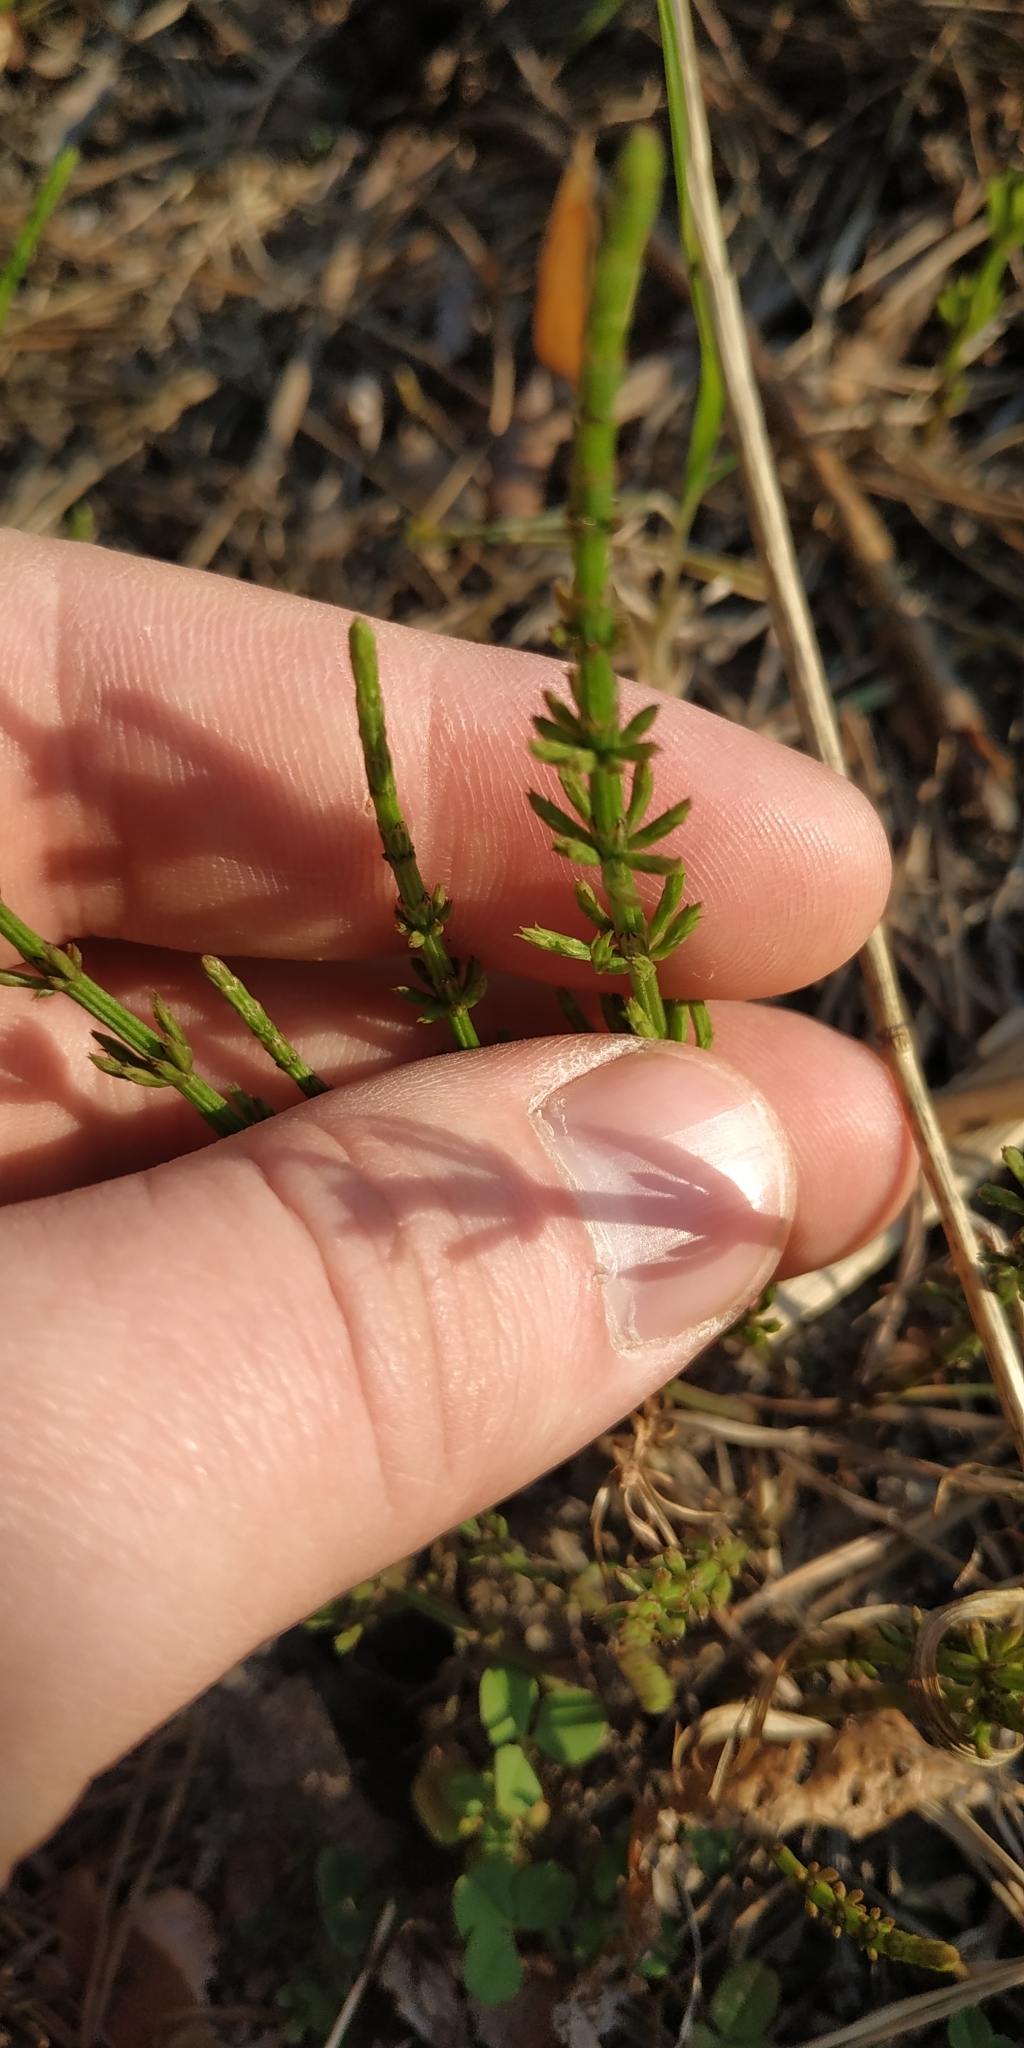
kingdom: Plantae
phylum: Tracheophyta
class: Polypodiopsida
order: Equisetales
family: Equisetaceae
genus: Equisetum
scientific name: Equisetum arvense
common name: Field horsetail
